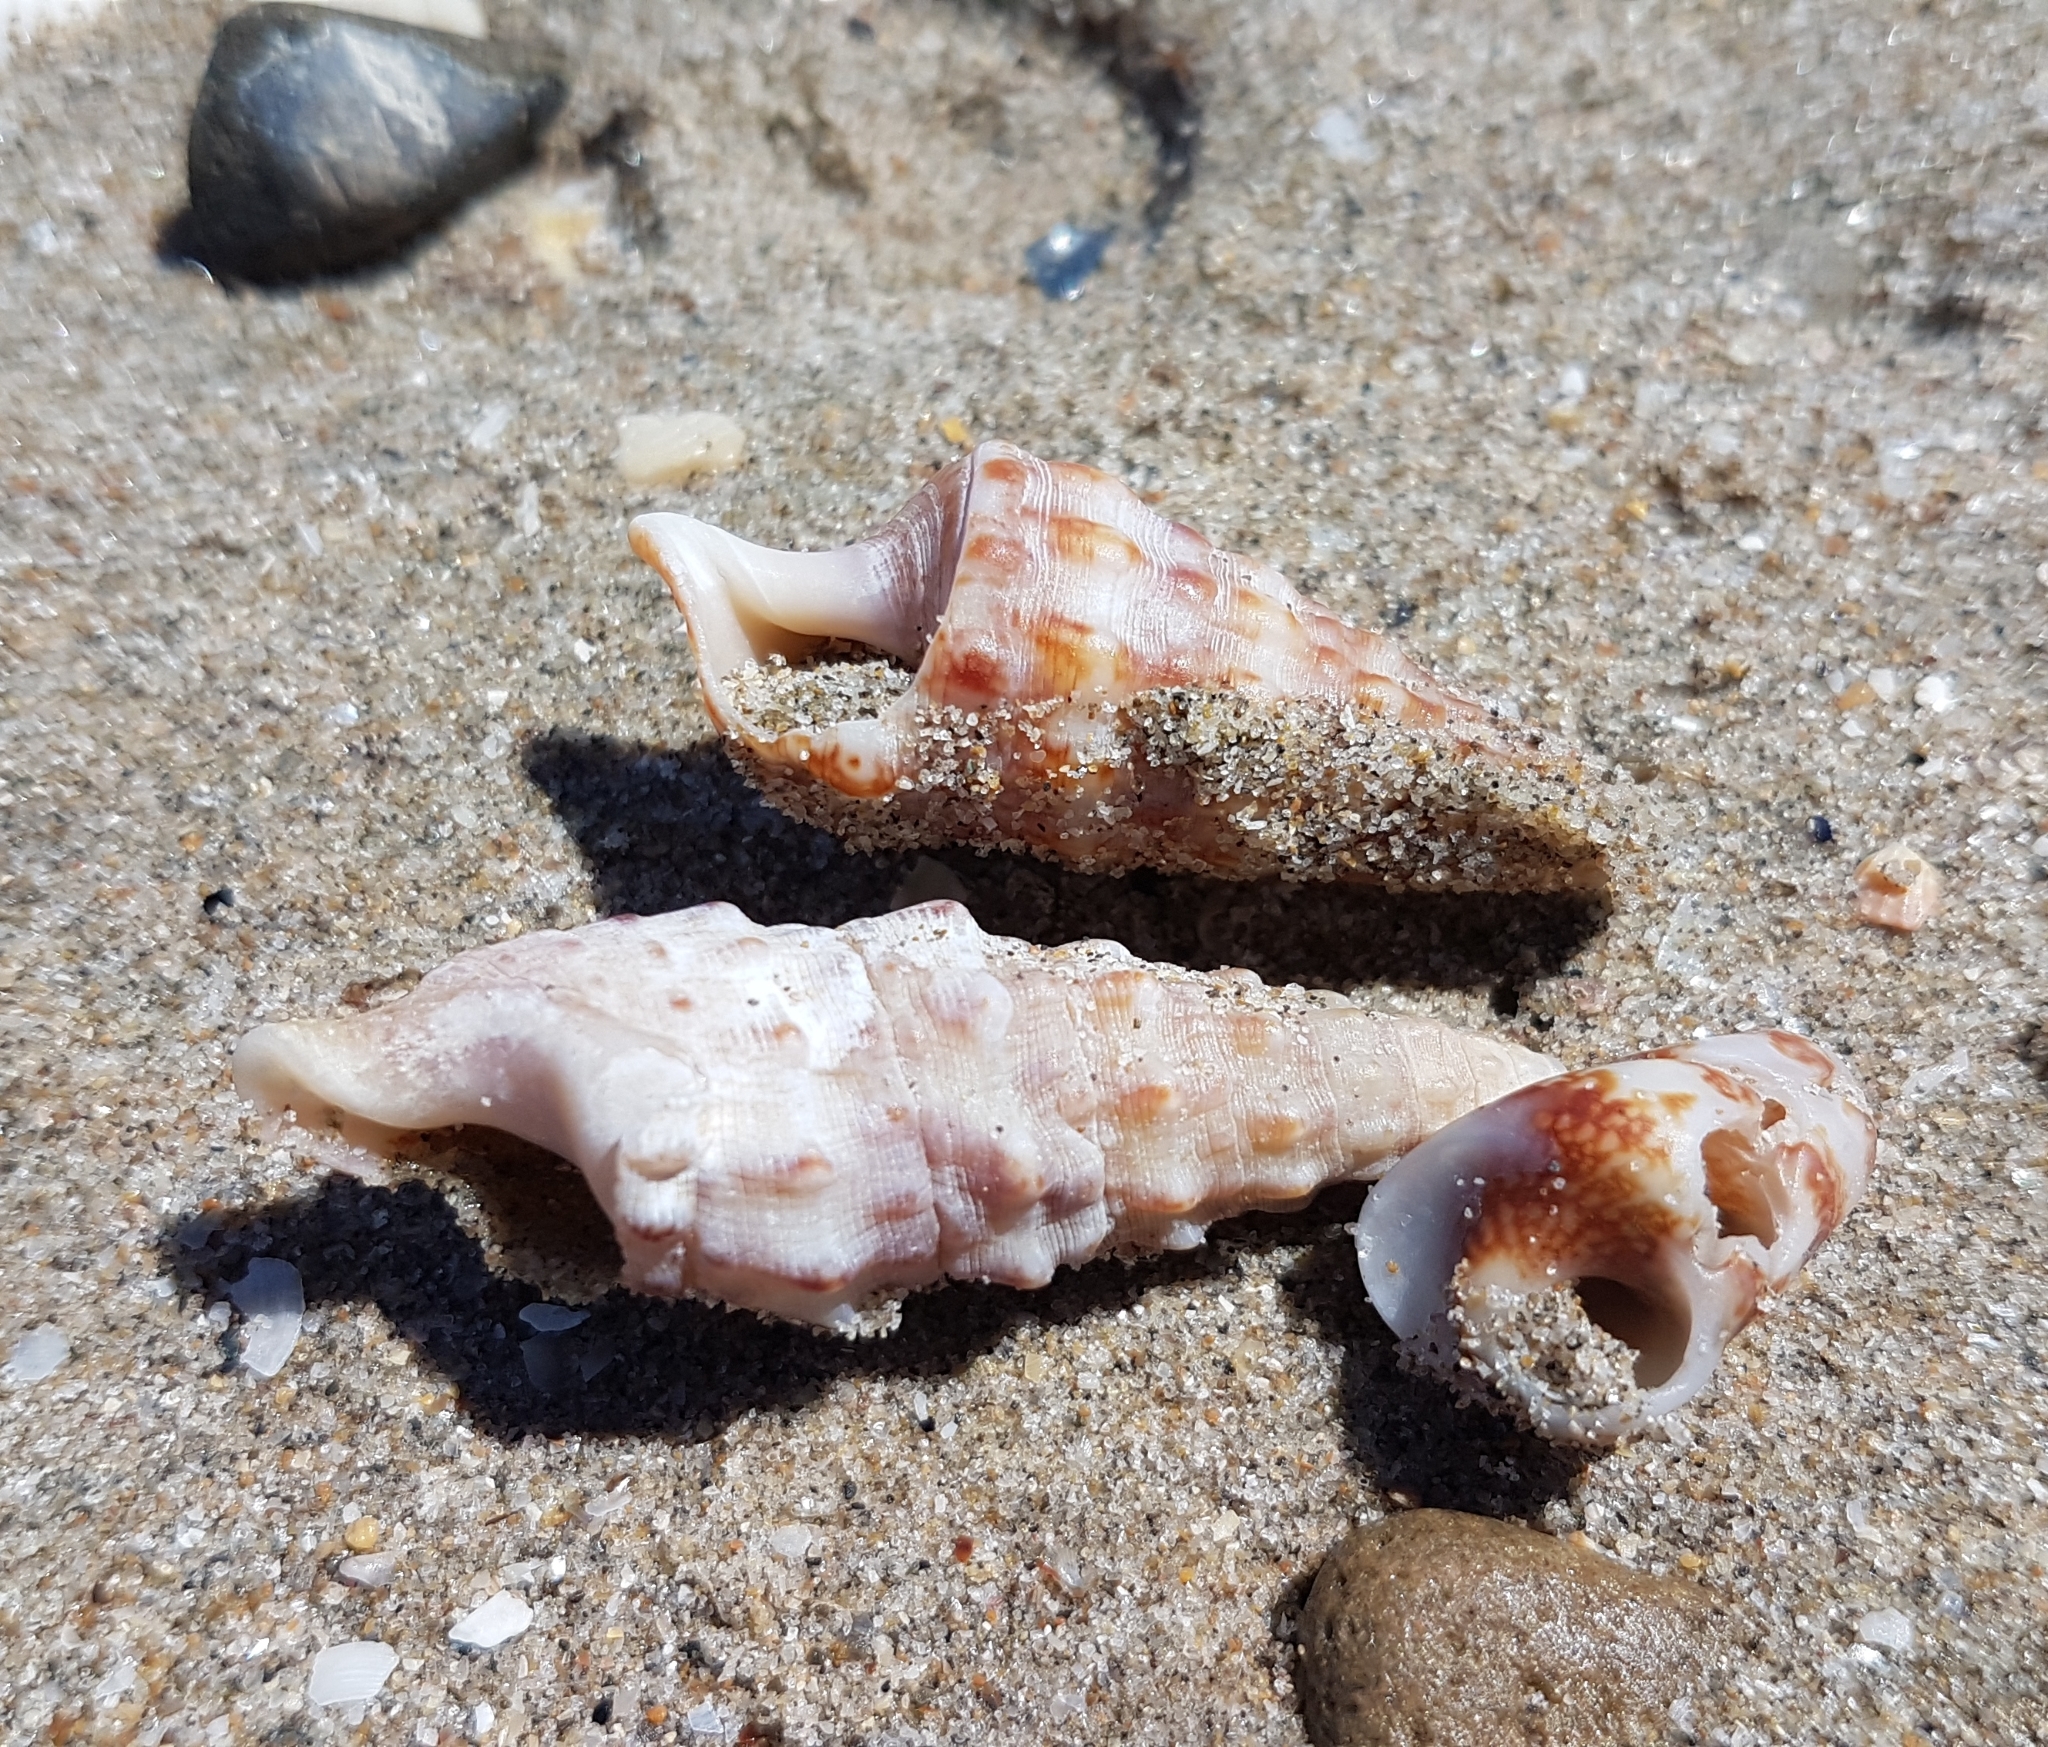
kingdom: Animalia
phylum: Mollusca
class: Gastropoda
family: Cerithiidae
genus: Cerithium
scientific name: Cerithium vulgatum
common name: European cerith
